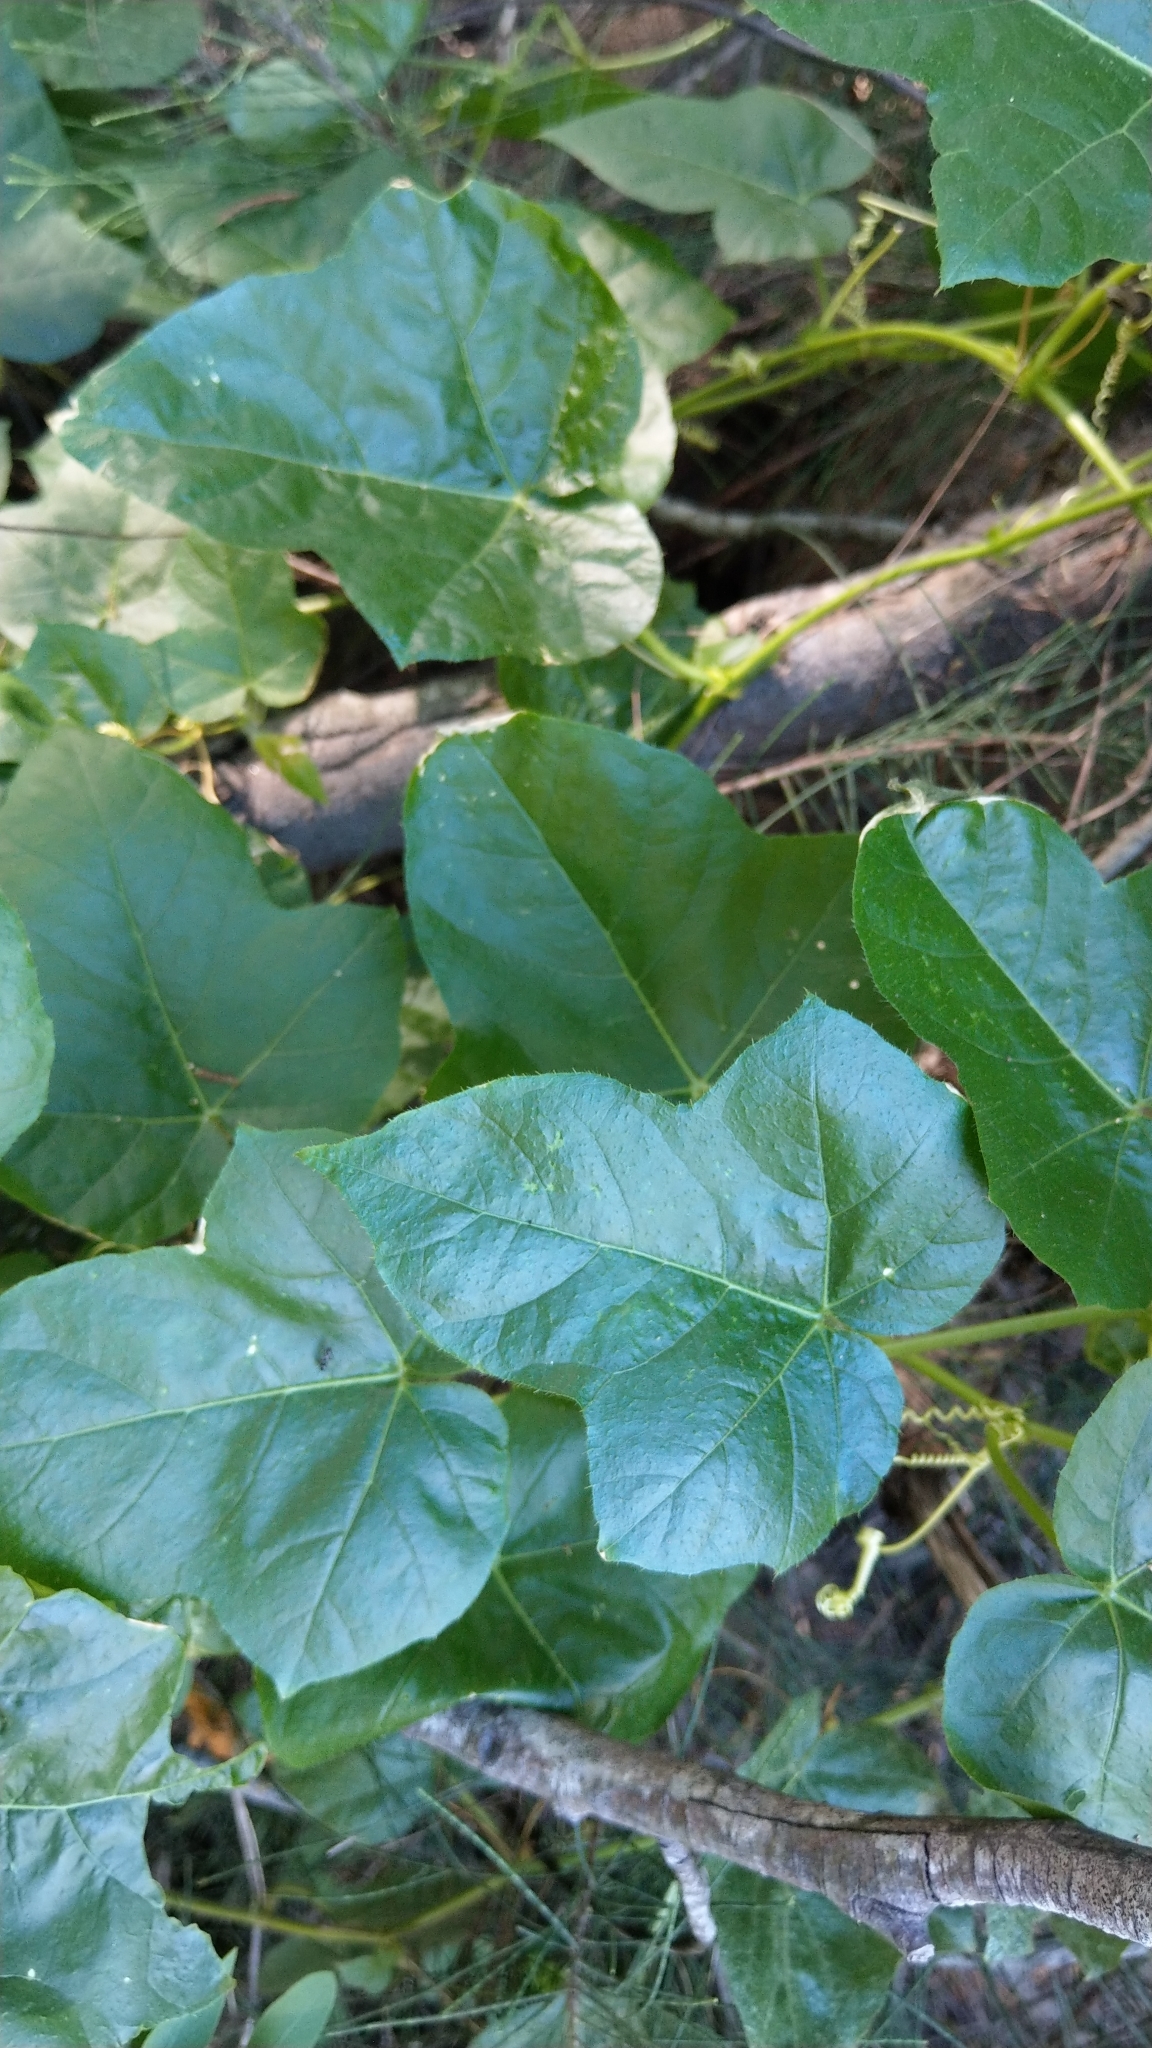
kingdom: Plantae
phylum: Tracheophyta
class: Magnoliopsida
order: Malpighiales
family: Passifloraceae
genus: Passiflora
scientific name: Passiflora vesicaria
